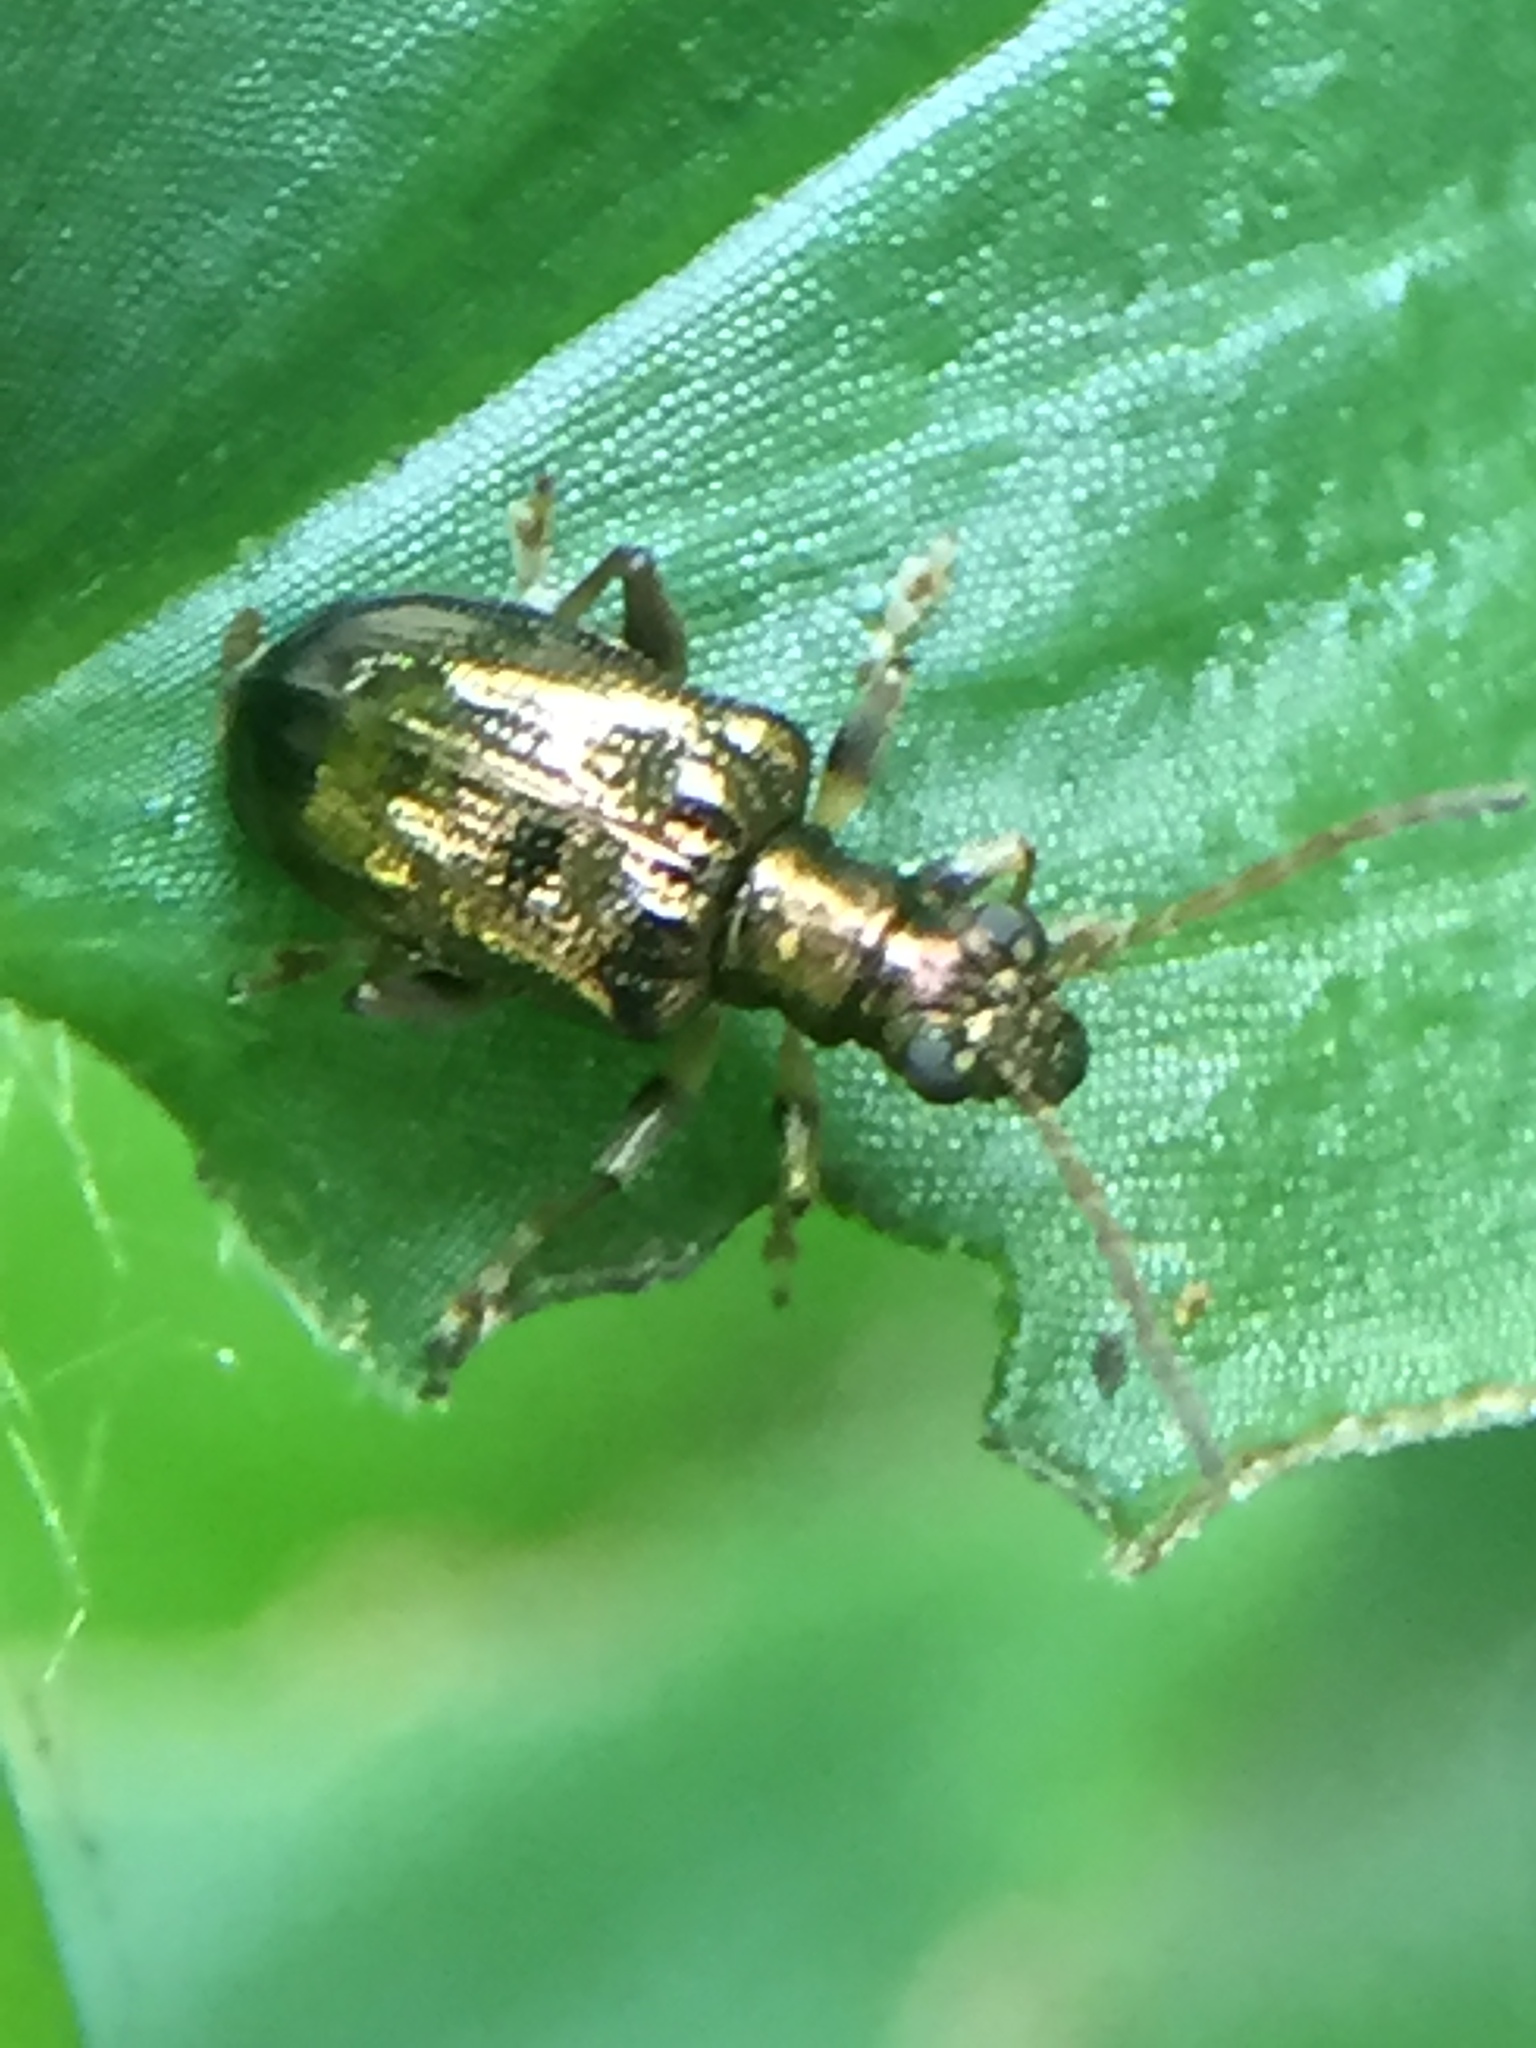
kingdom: Animalia
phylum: Arthropoda
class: Insecta
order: Coleoptera
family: Chrysomelidae
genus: Neolema
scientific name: Neolema ogloblini
